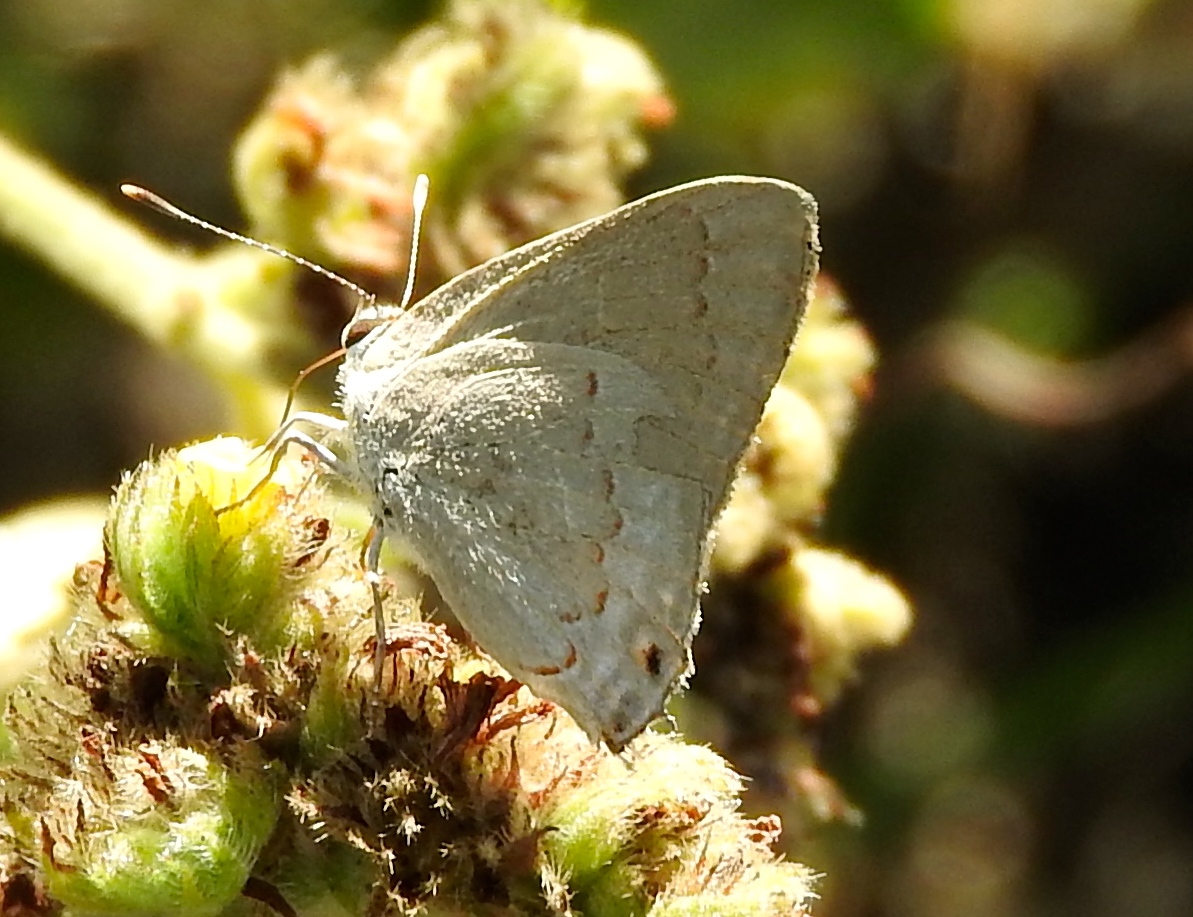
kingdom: Animalia
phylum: Arthropoda
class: Insecta
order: Lepidoptera
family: Lycaenidae
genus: Thecla
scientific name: Thecla rufofusca
